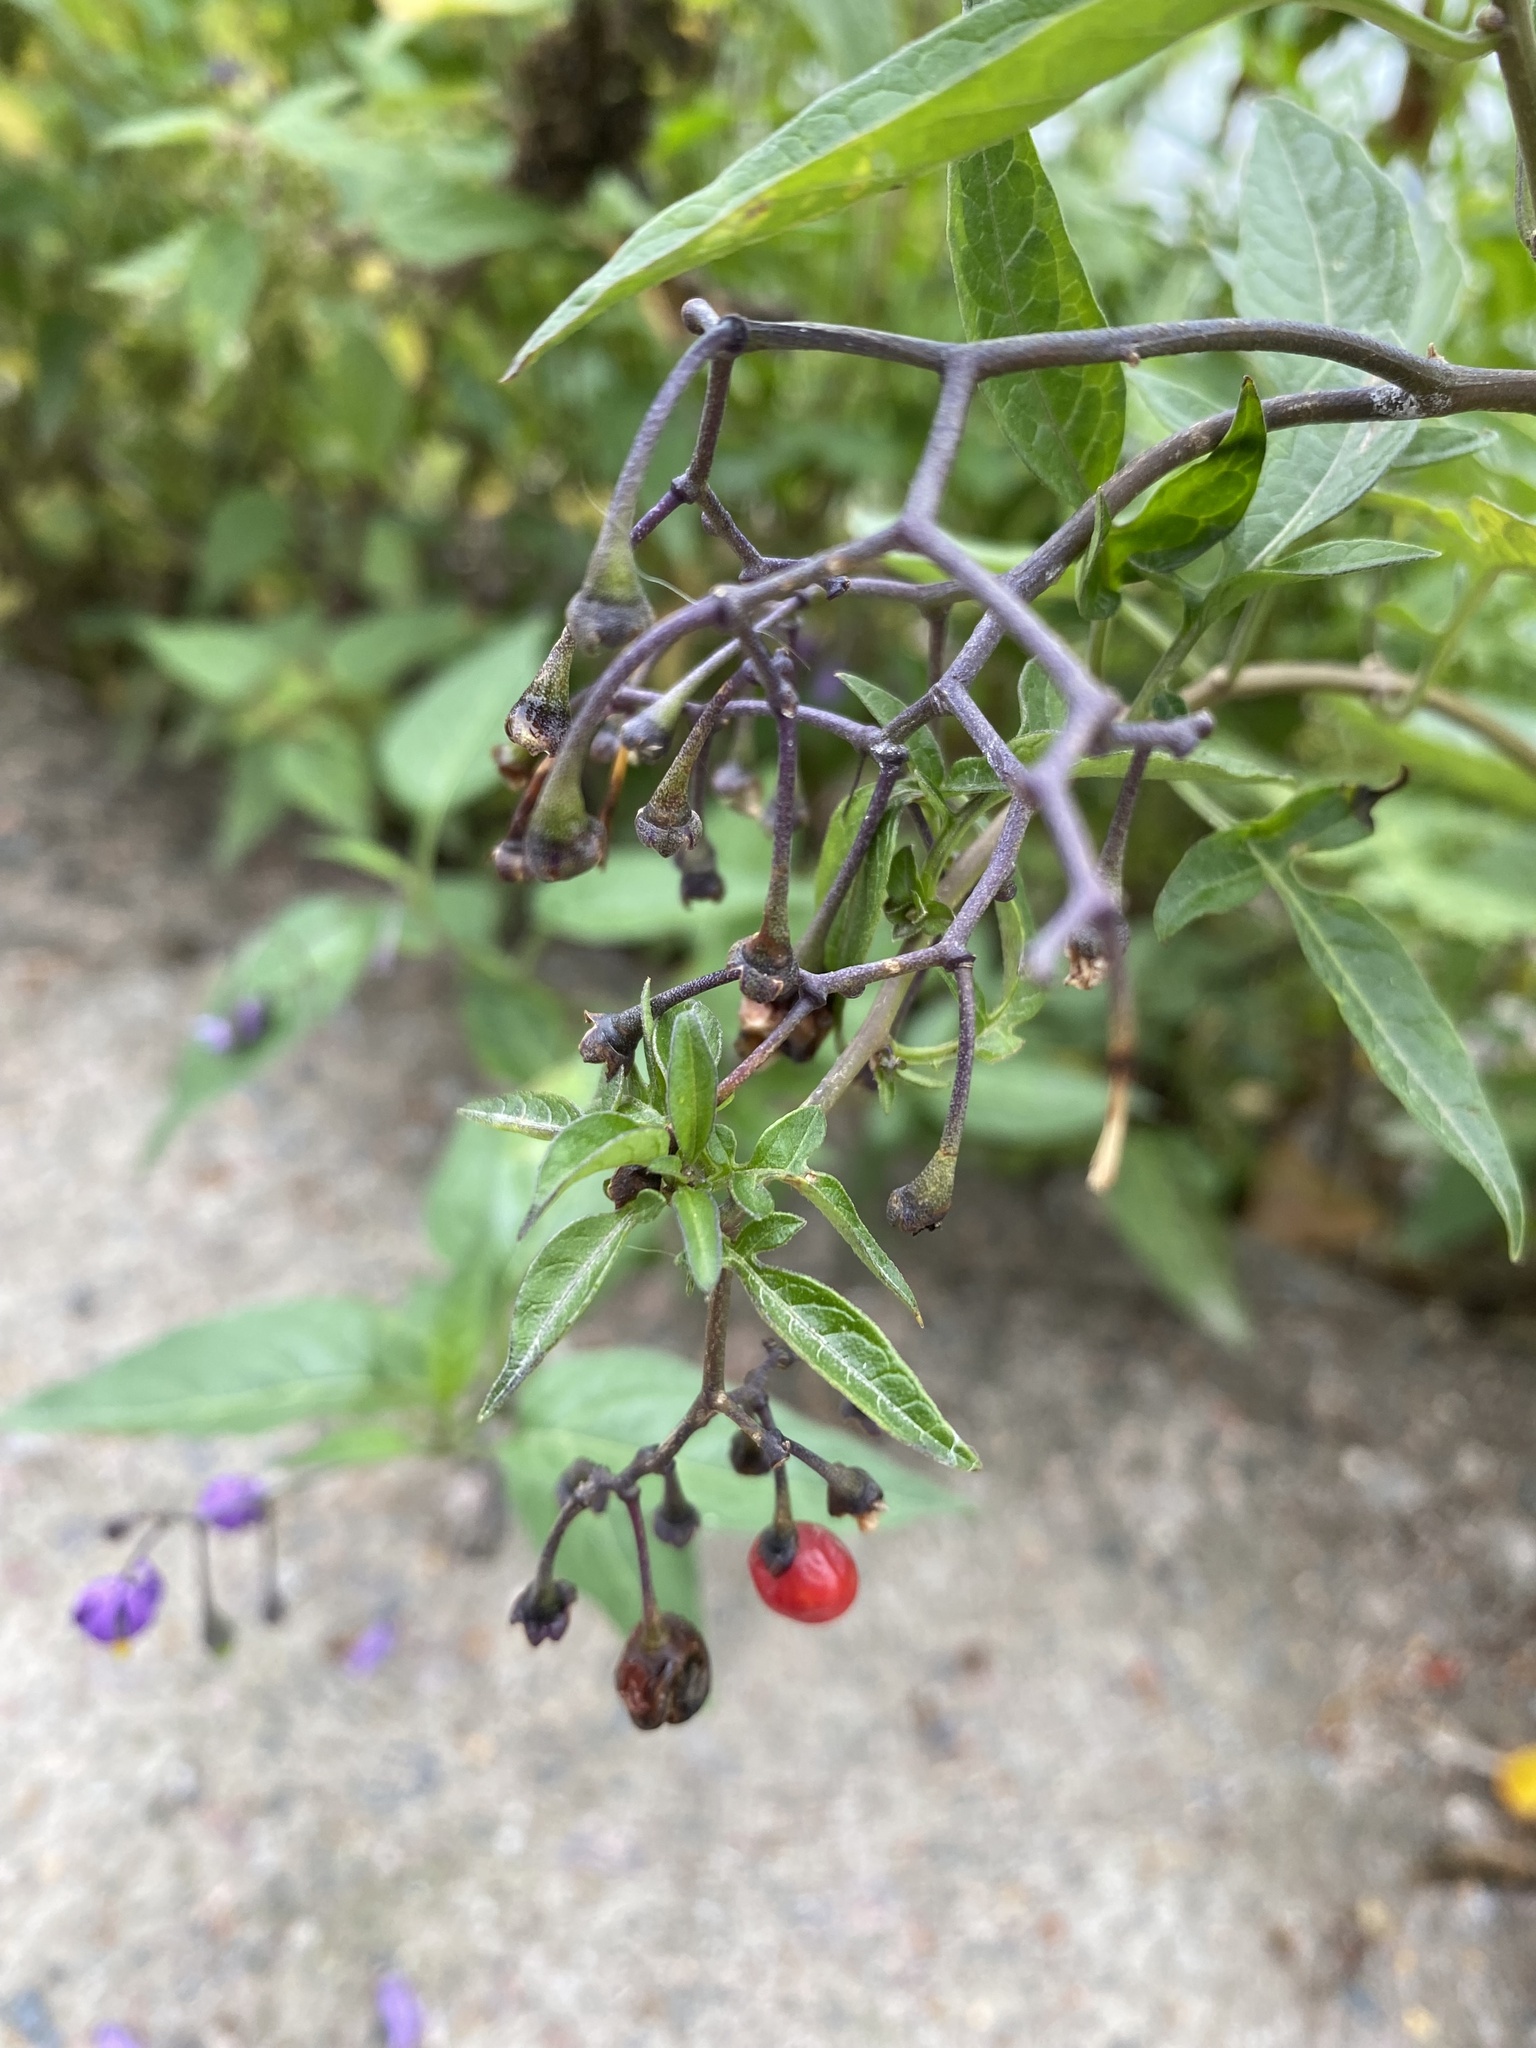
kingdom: Plantae
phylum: Tracheophyta
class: Magnoliopsida
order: Solanales
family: Solanaceae
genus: Solanum
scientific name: Solanum dulcamara
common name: Climbing nightshade
